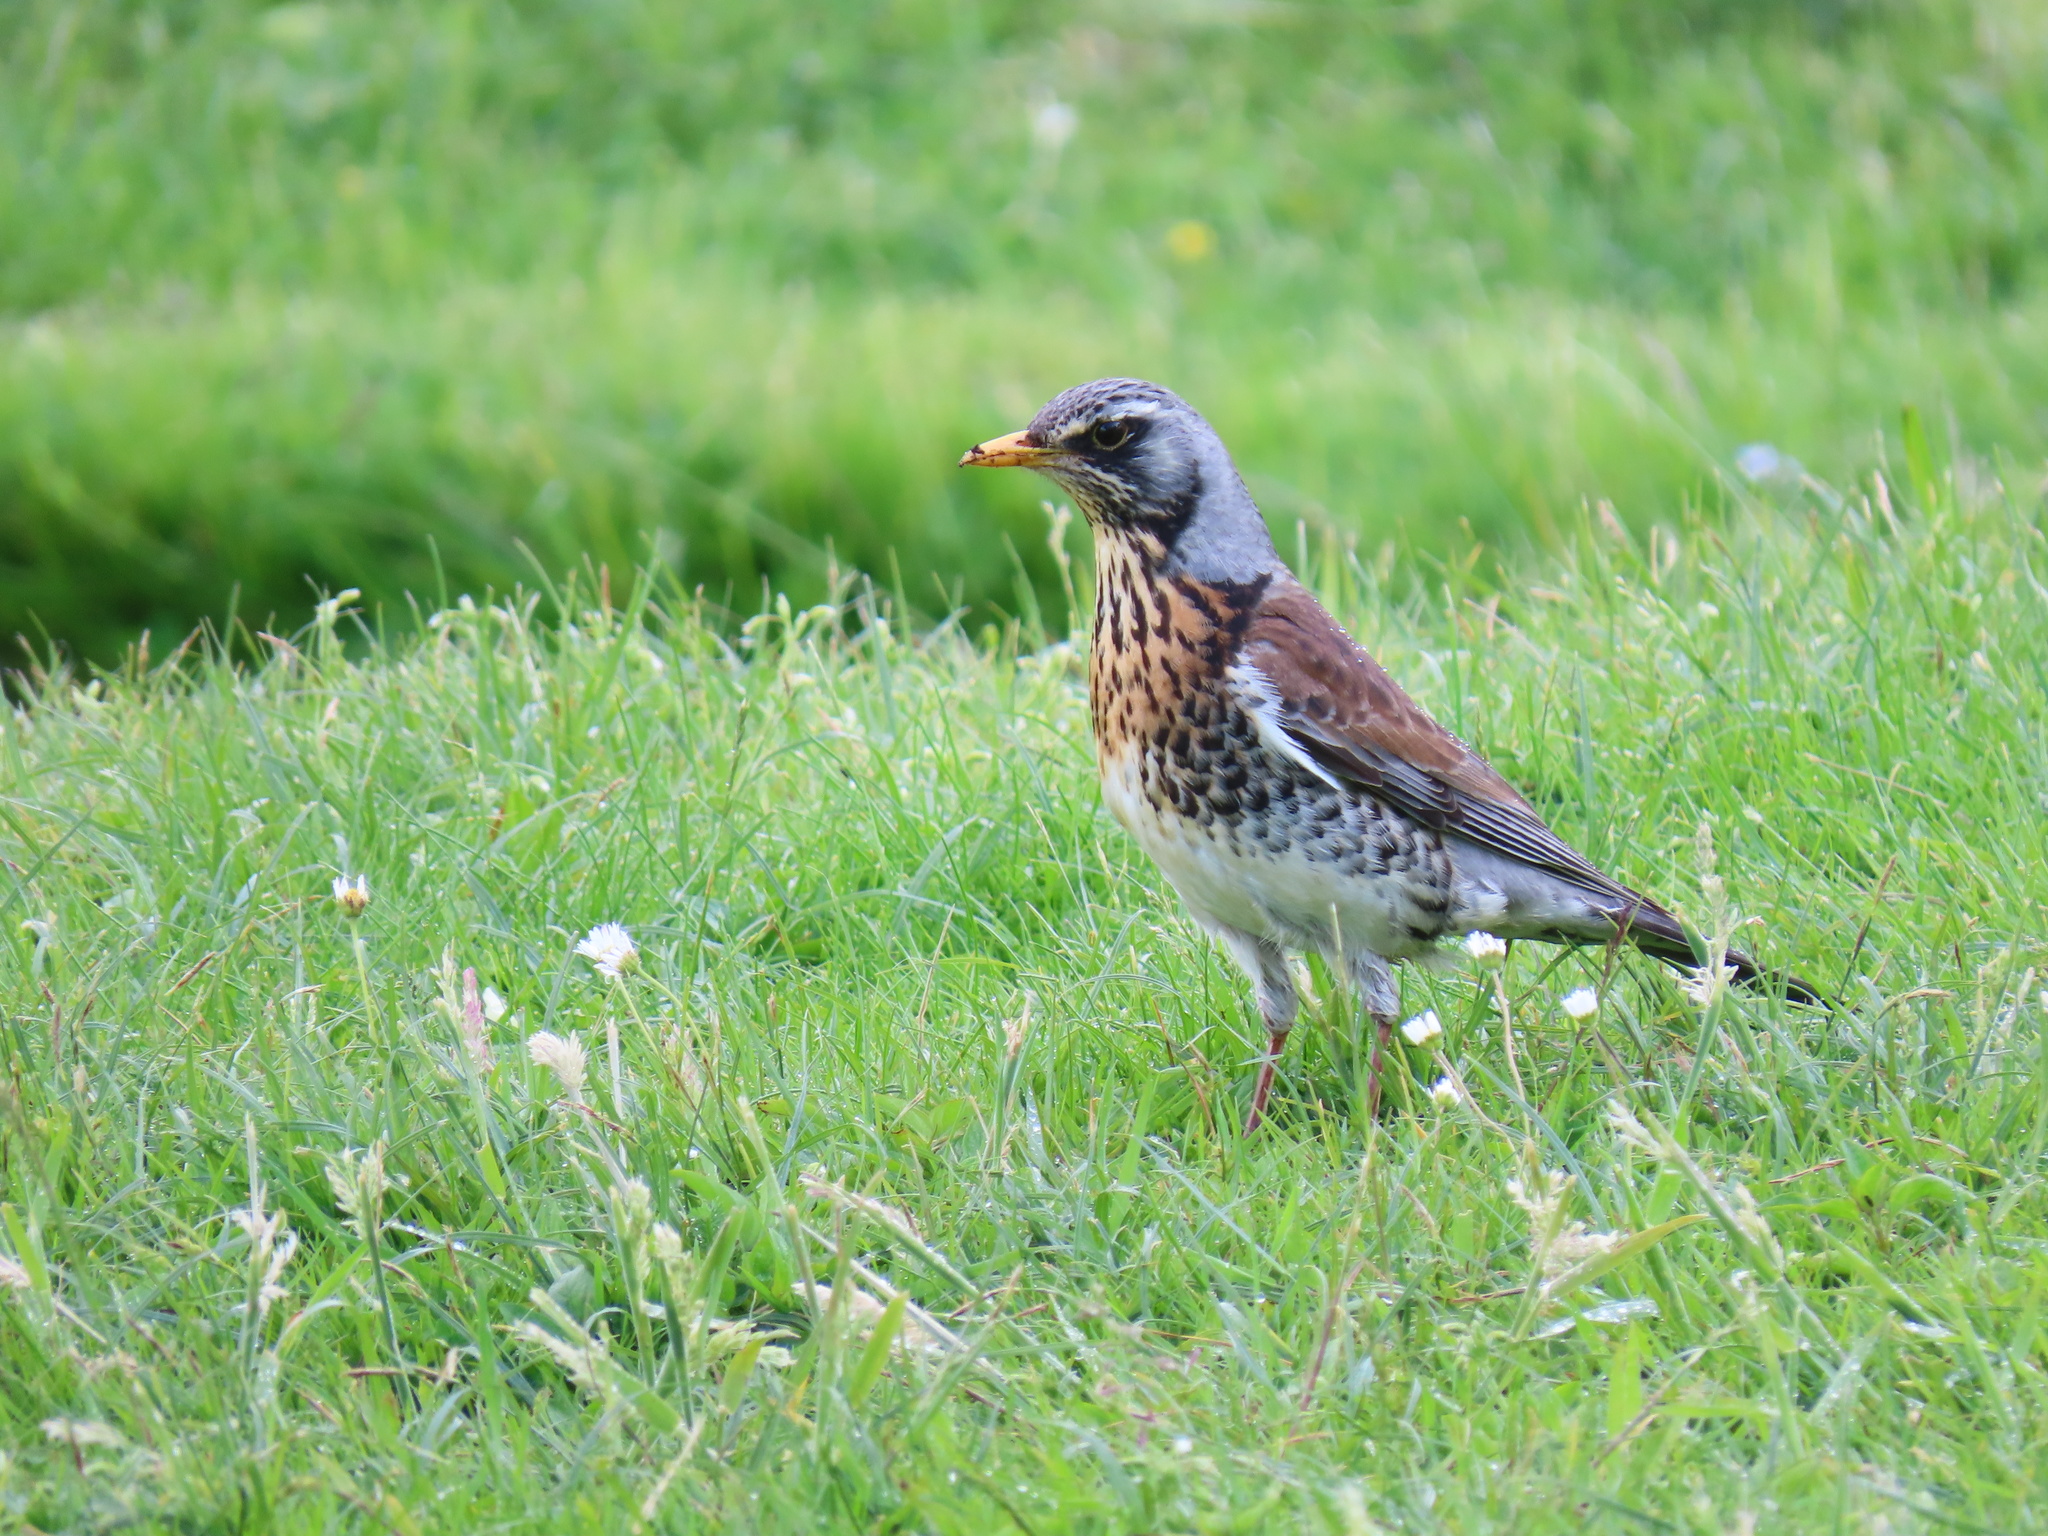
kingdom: Animalia
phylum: Chordata
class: Aves
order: Passeriformes
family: Turdidae
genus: Turdus
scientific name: Turdus pilaris
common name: Fieldfare
